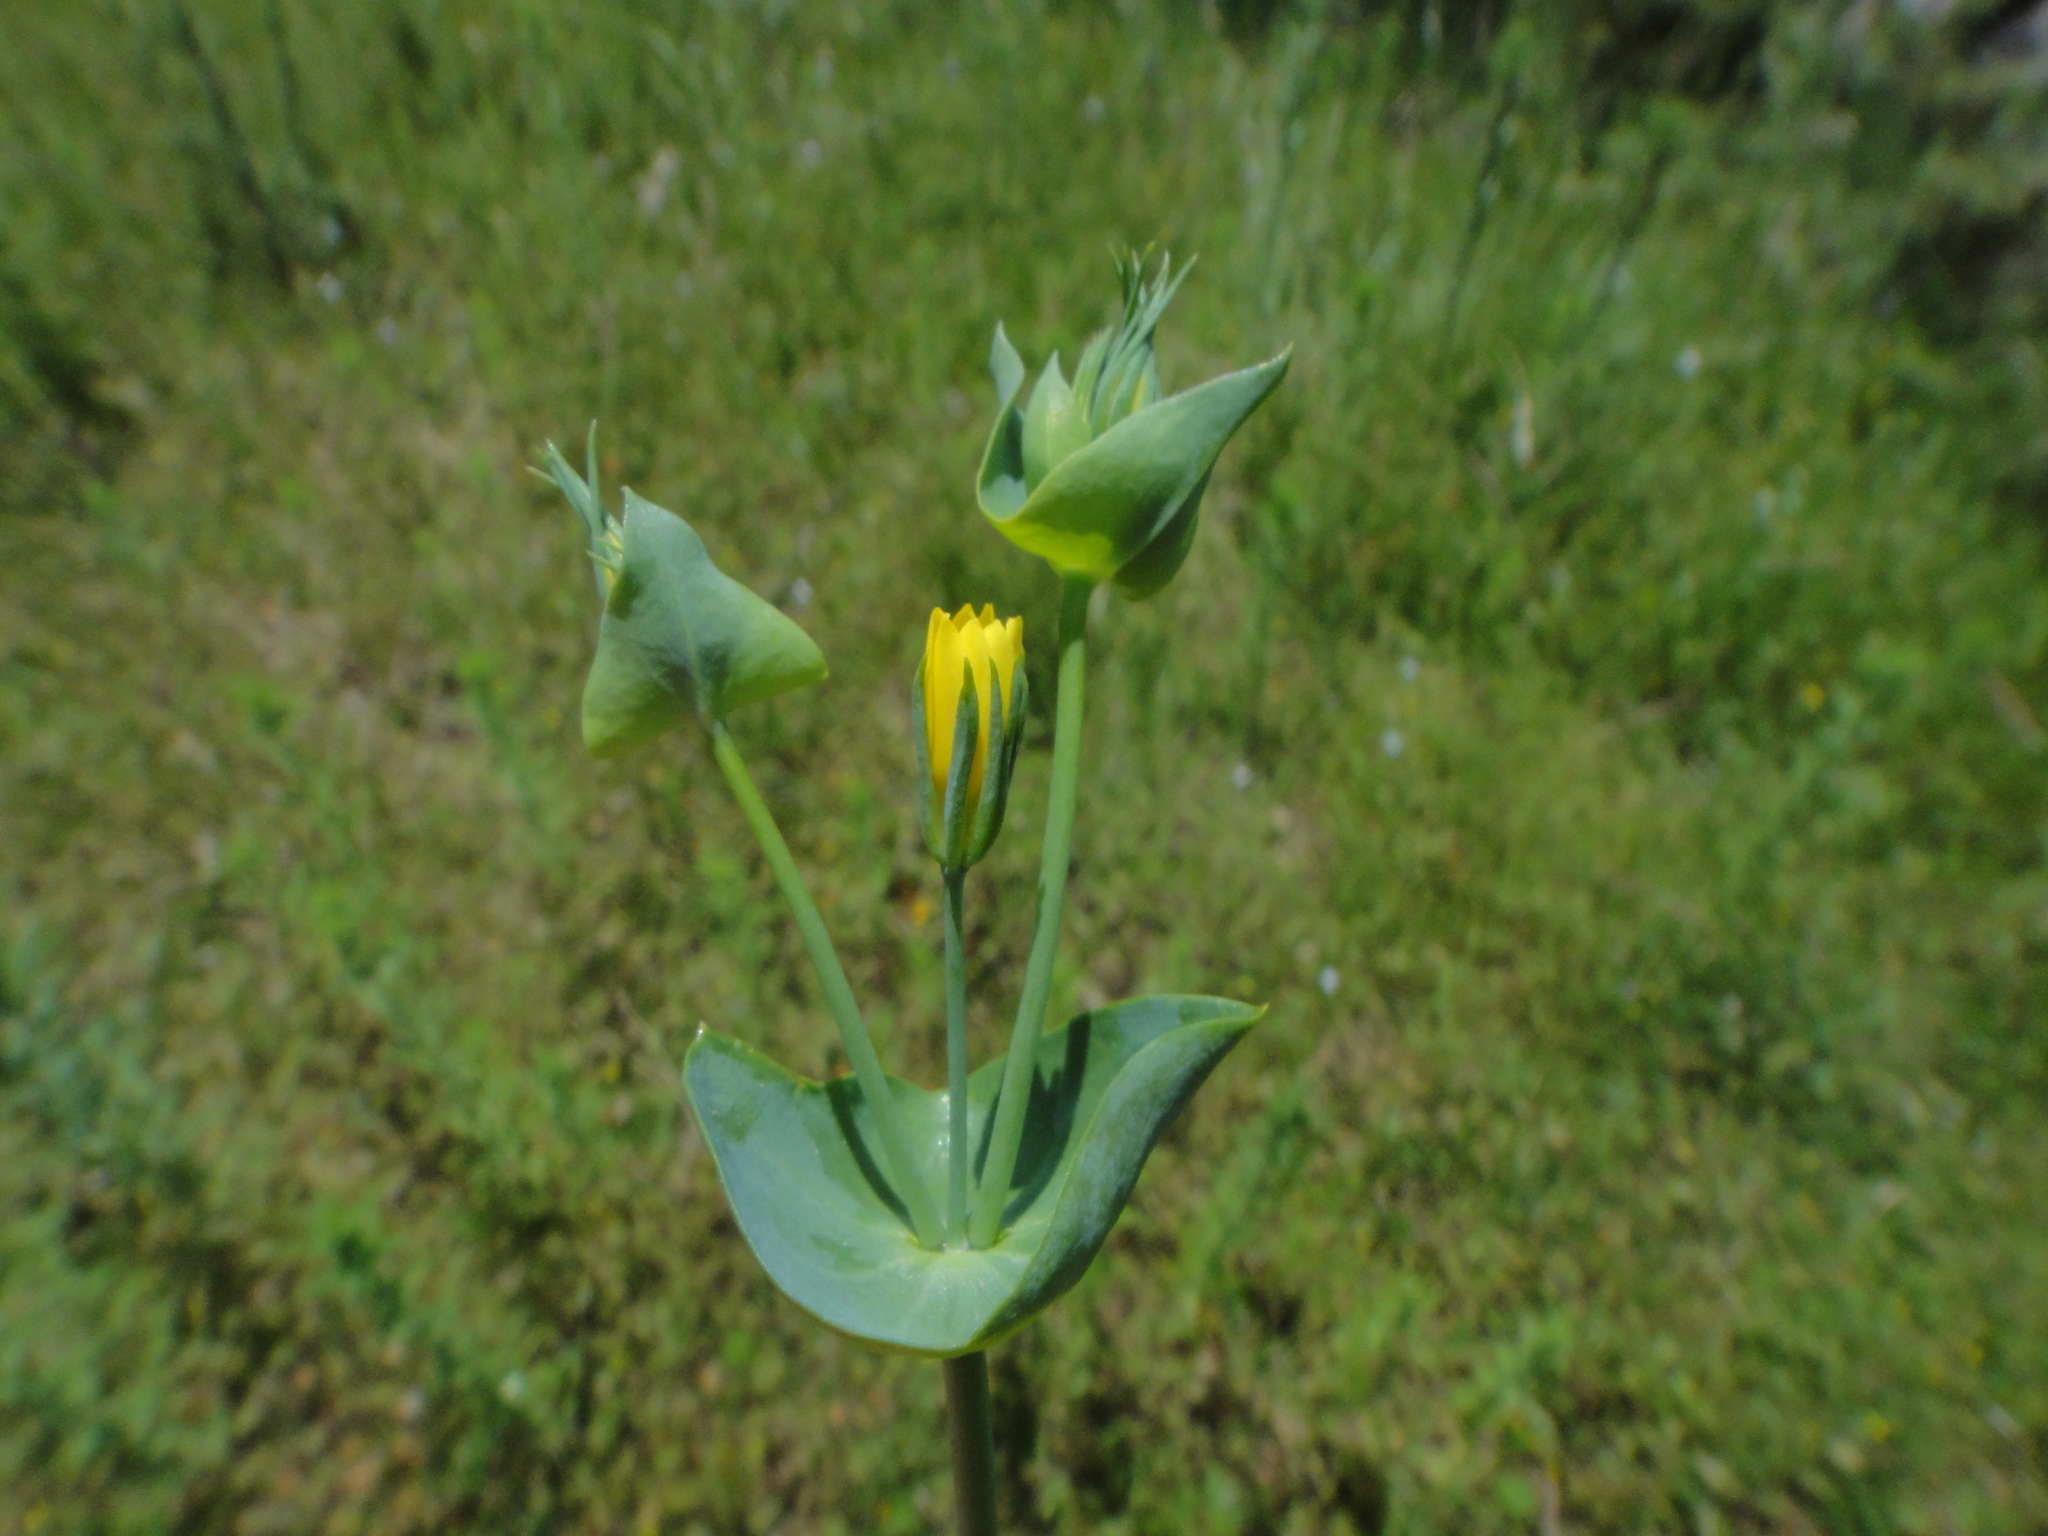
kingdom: Plantae
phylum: Tracheophyta
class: Magnoliopsida
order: Gentianales
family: Gentianaceae
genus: Blackstonia
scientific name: Blackstonia perfoliata
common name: Yellow-wort
